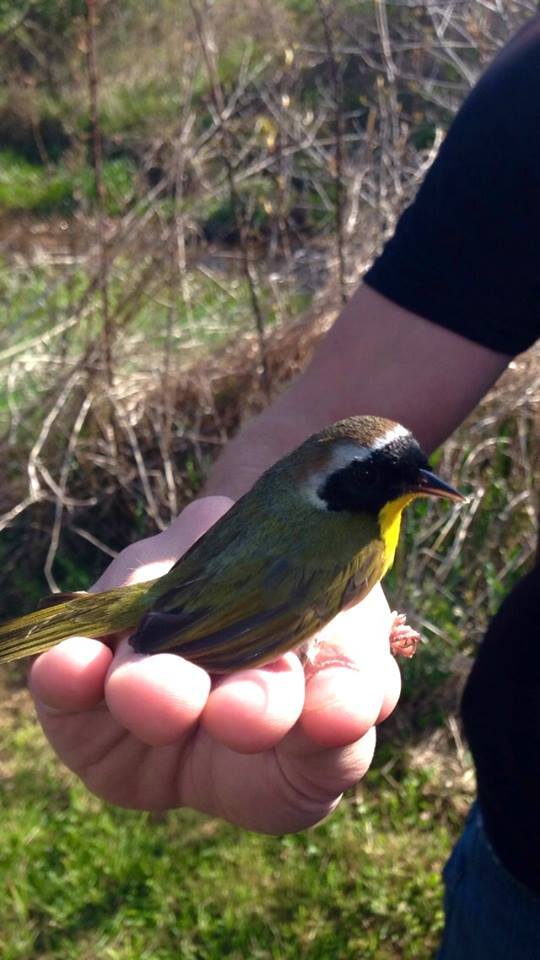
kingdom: Animalia
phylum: Chordata
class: Aves
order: Passeriformes
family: Parulidae
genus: Geothlypis
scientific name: Geothlypis trichas
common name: Common yellowthroat
